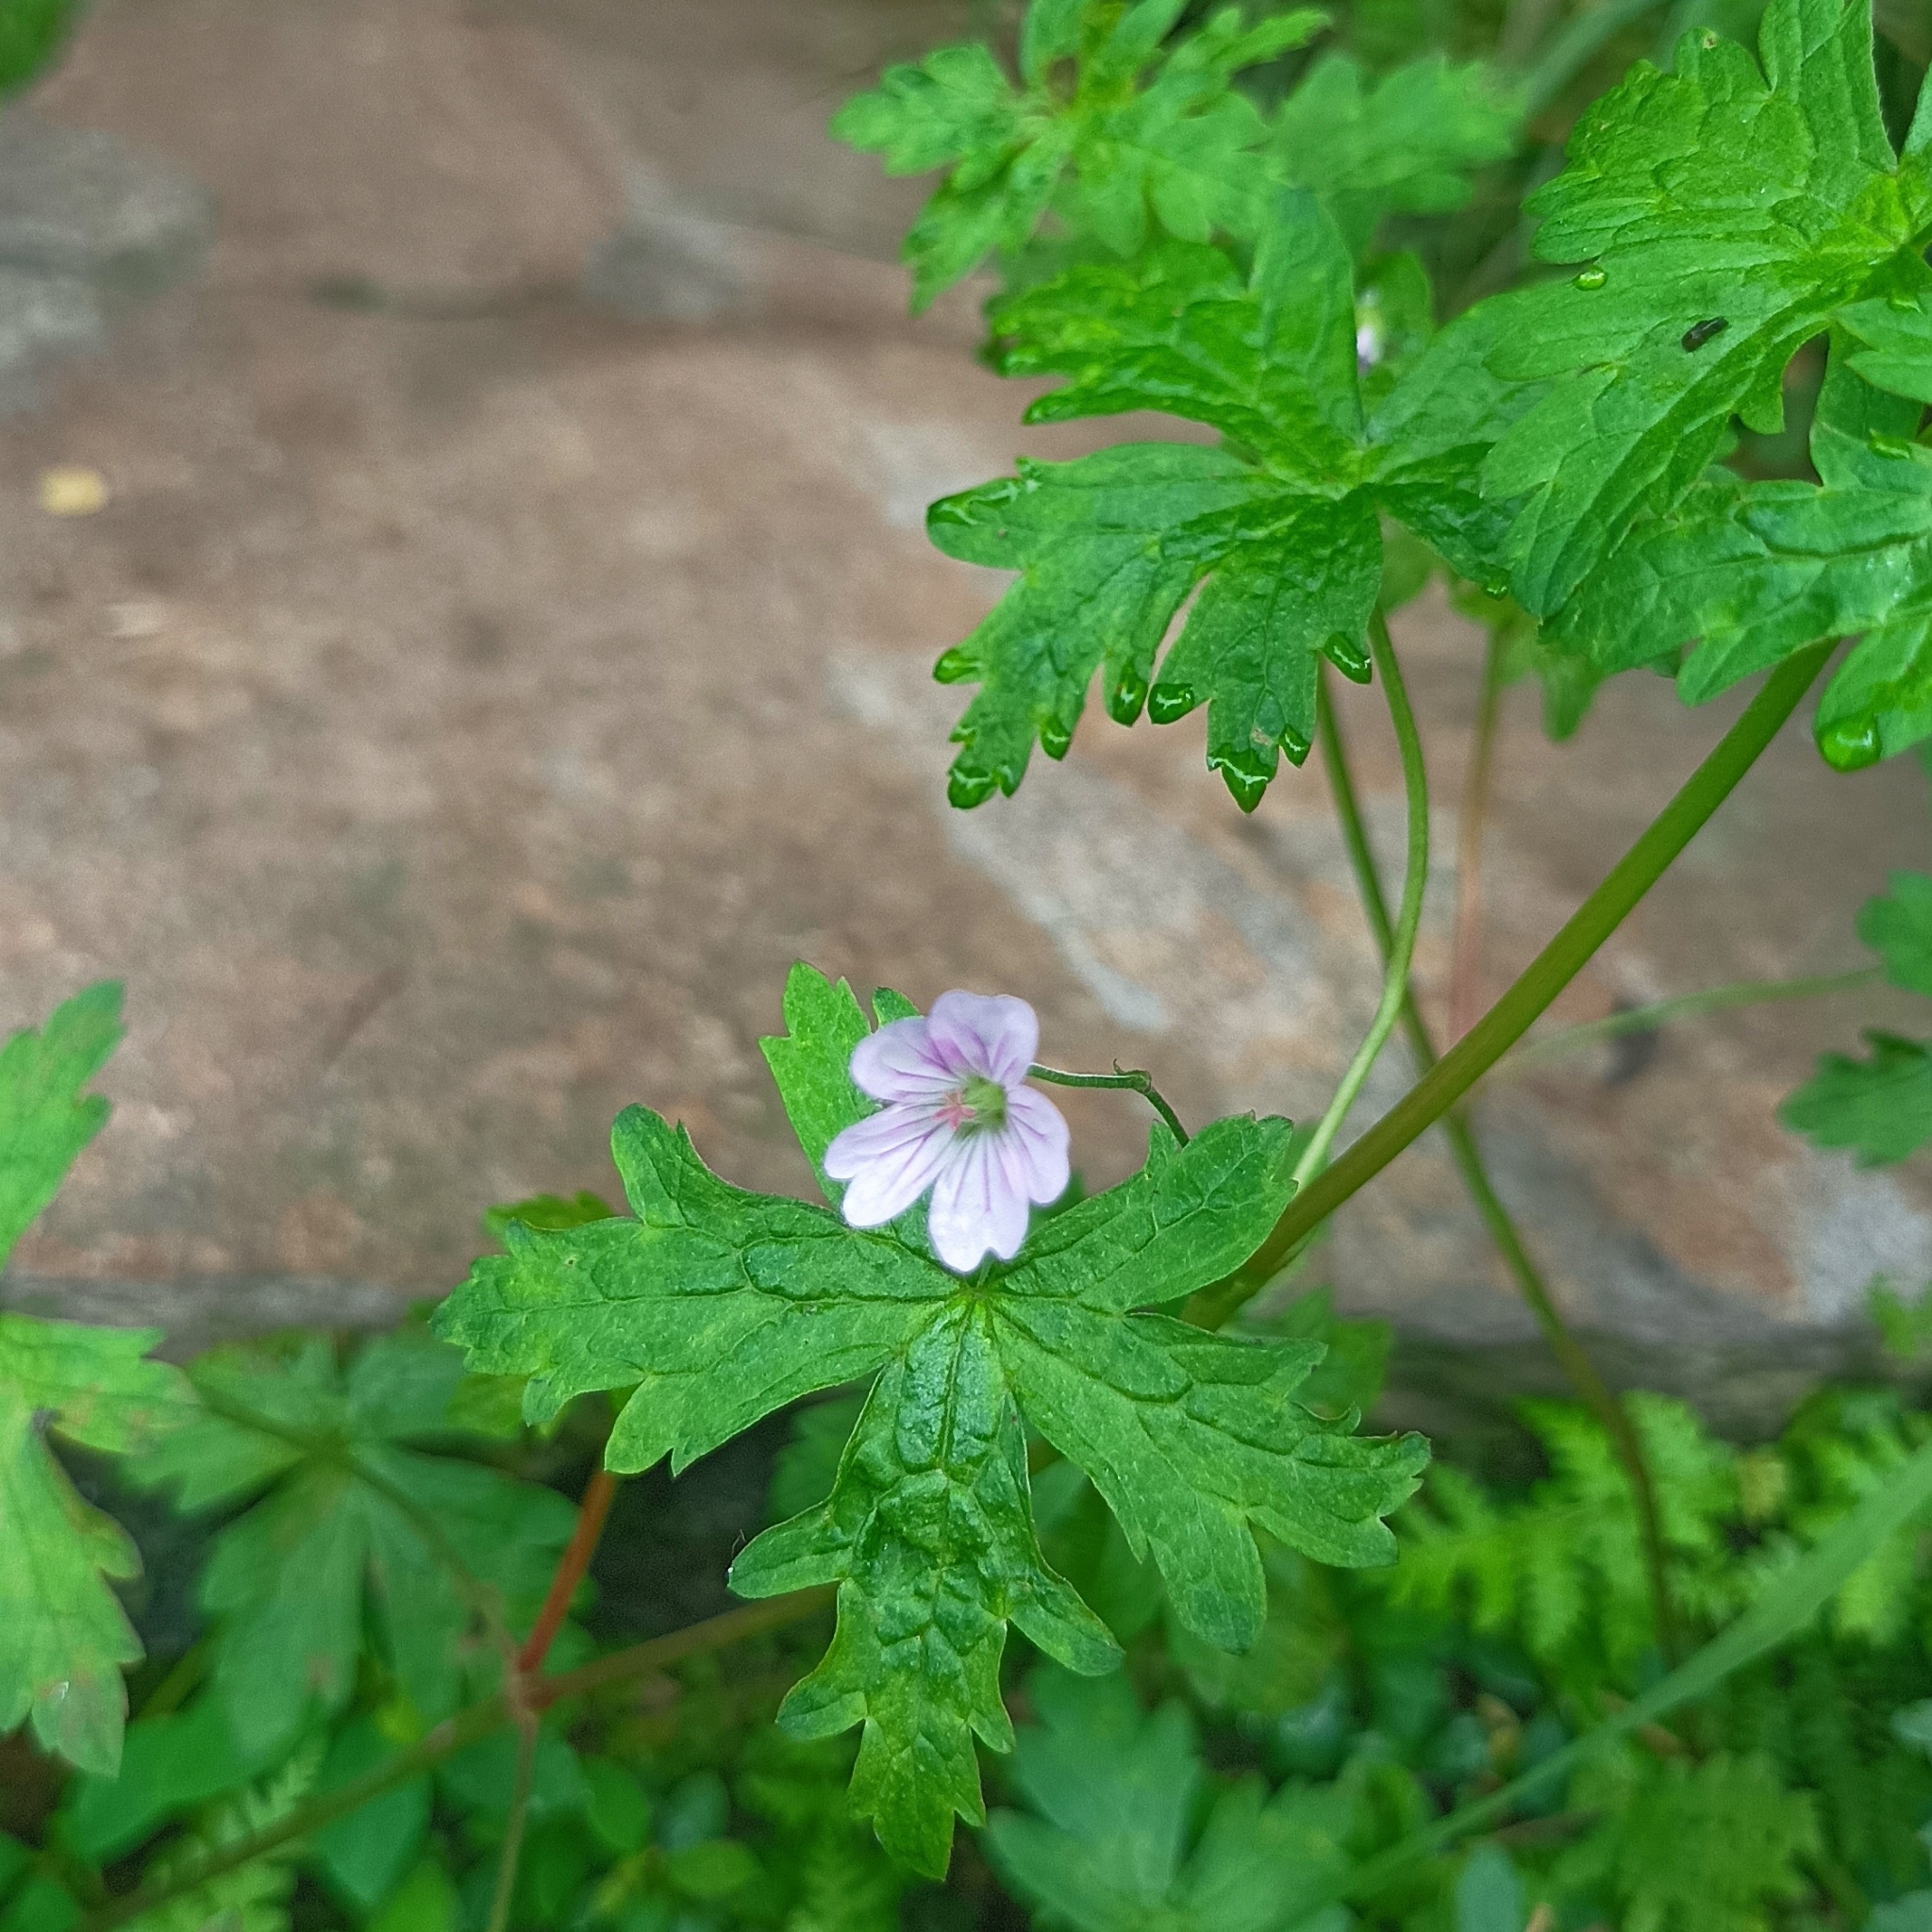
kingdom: Plantae
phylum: Tracheophyta
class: Magnoliopsida
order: Geraniales
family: Geraniaceae
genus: Geranium
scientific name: Geranium nepalense
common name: Nepalese crane's-bill
